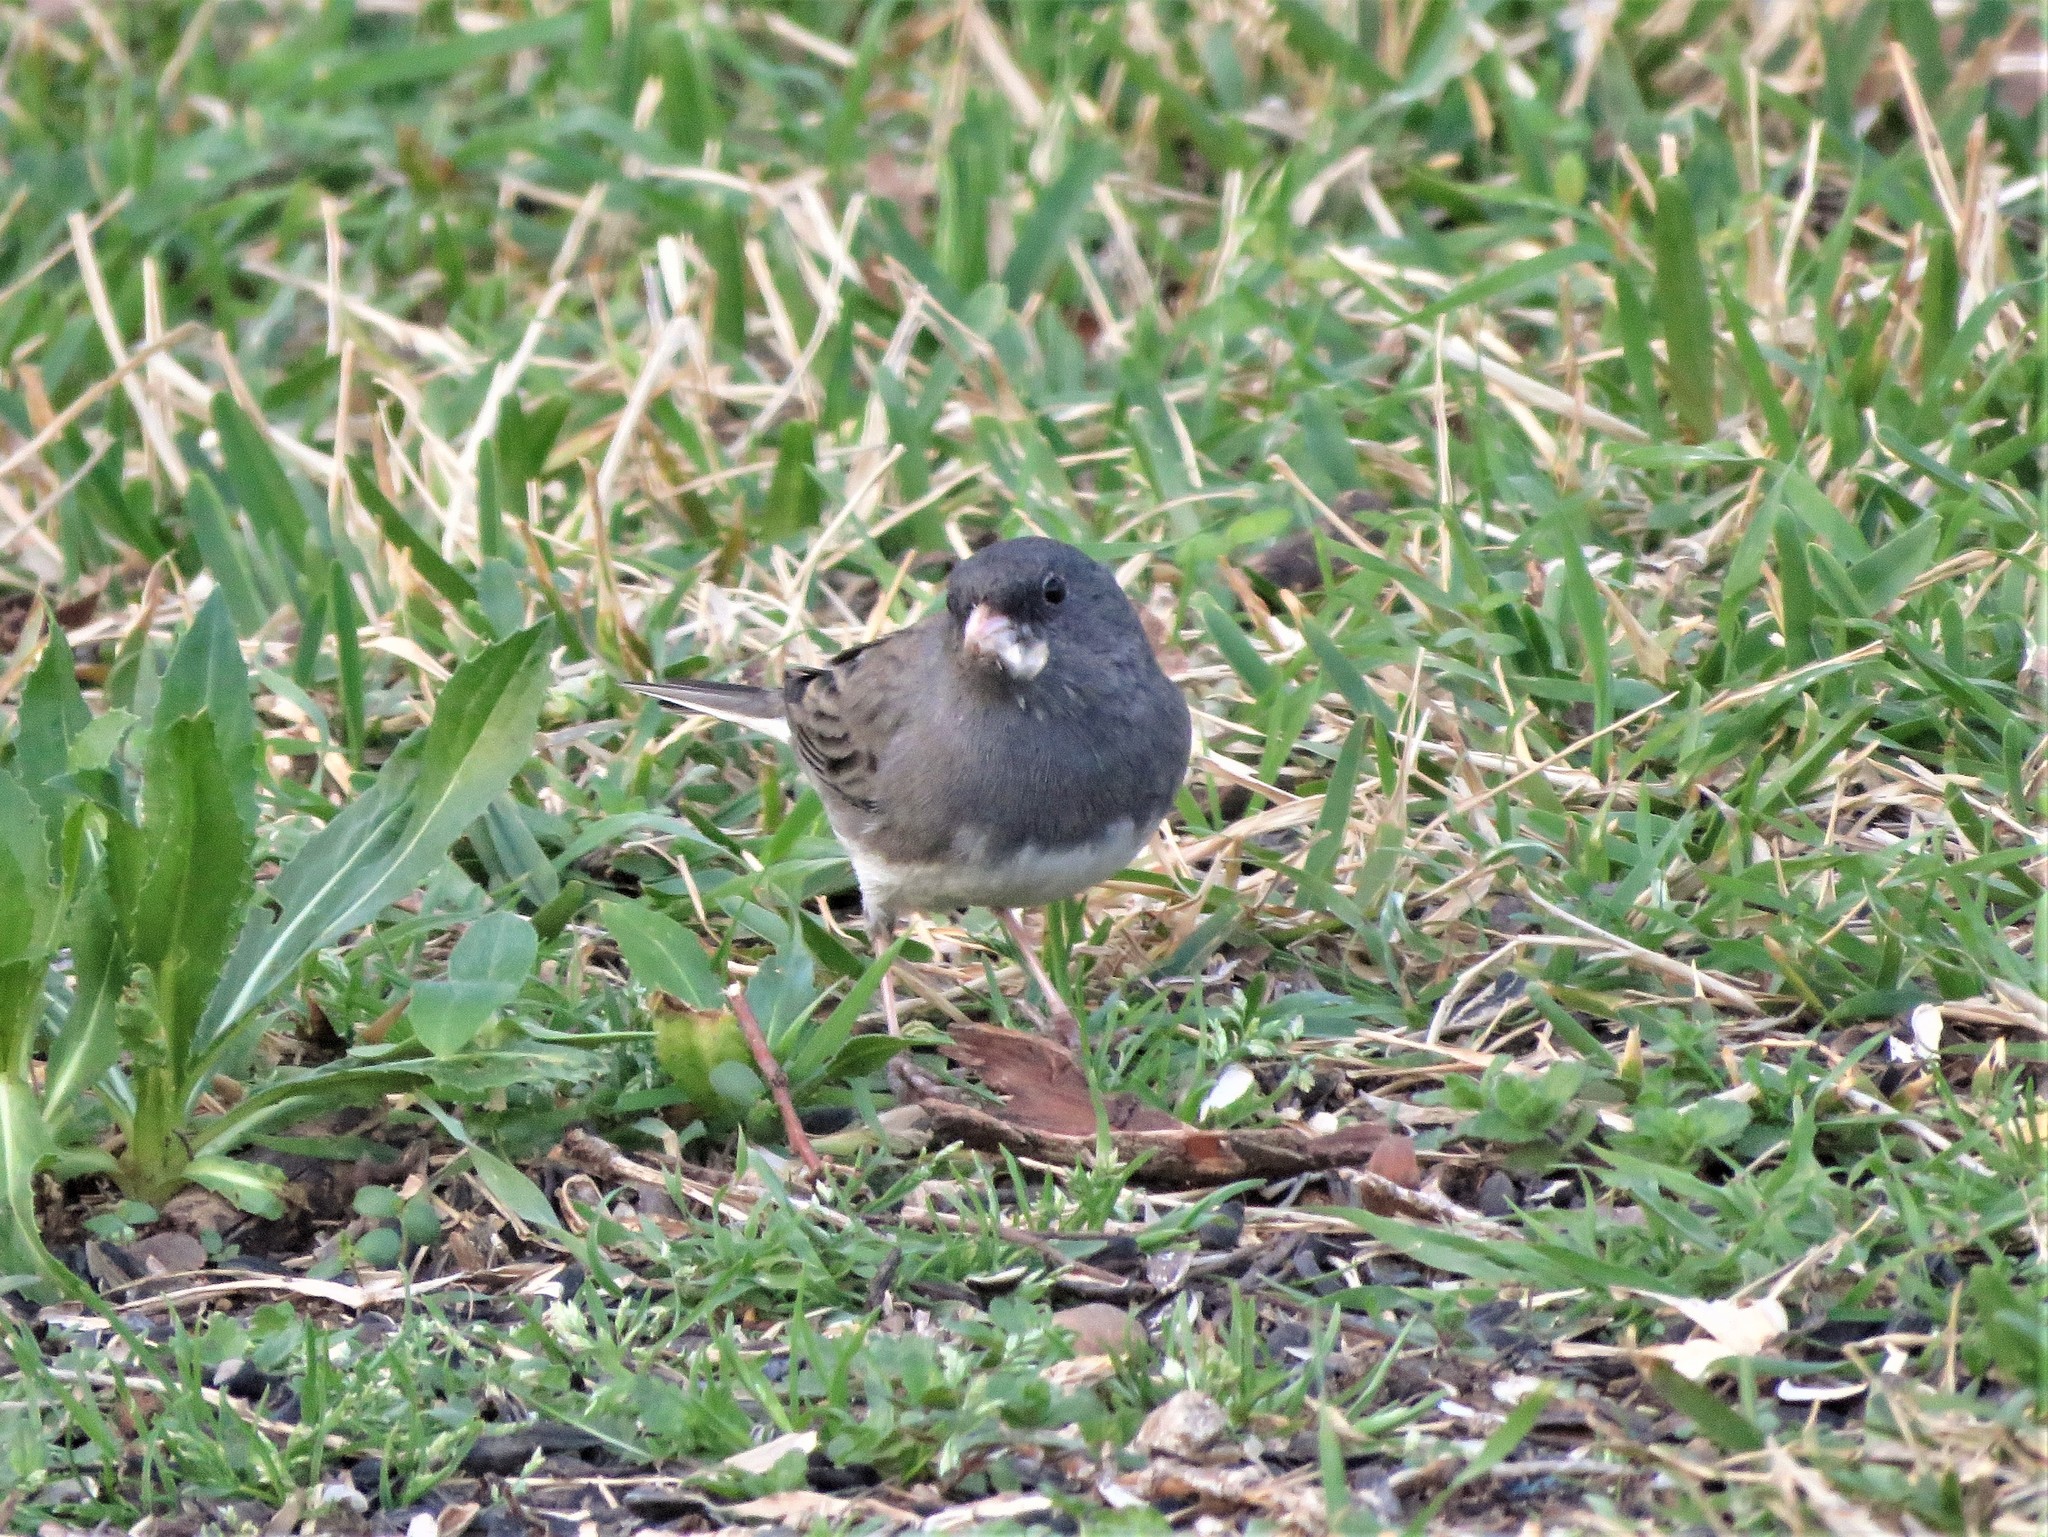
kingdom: Animalia
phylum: Chordata
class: Aves
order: Passeriformes
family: Passerellidae
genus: Junco
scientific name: Junco hyemalis
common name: Dark-eyed junco
